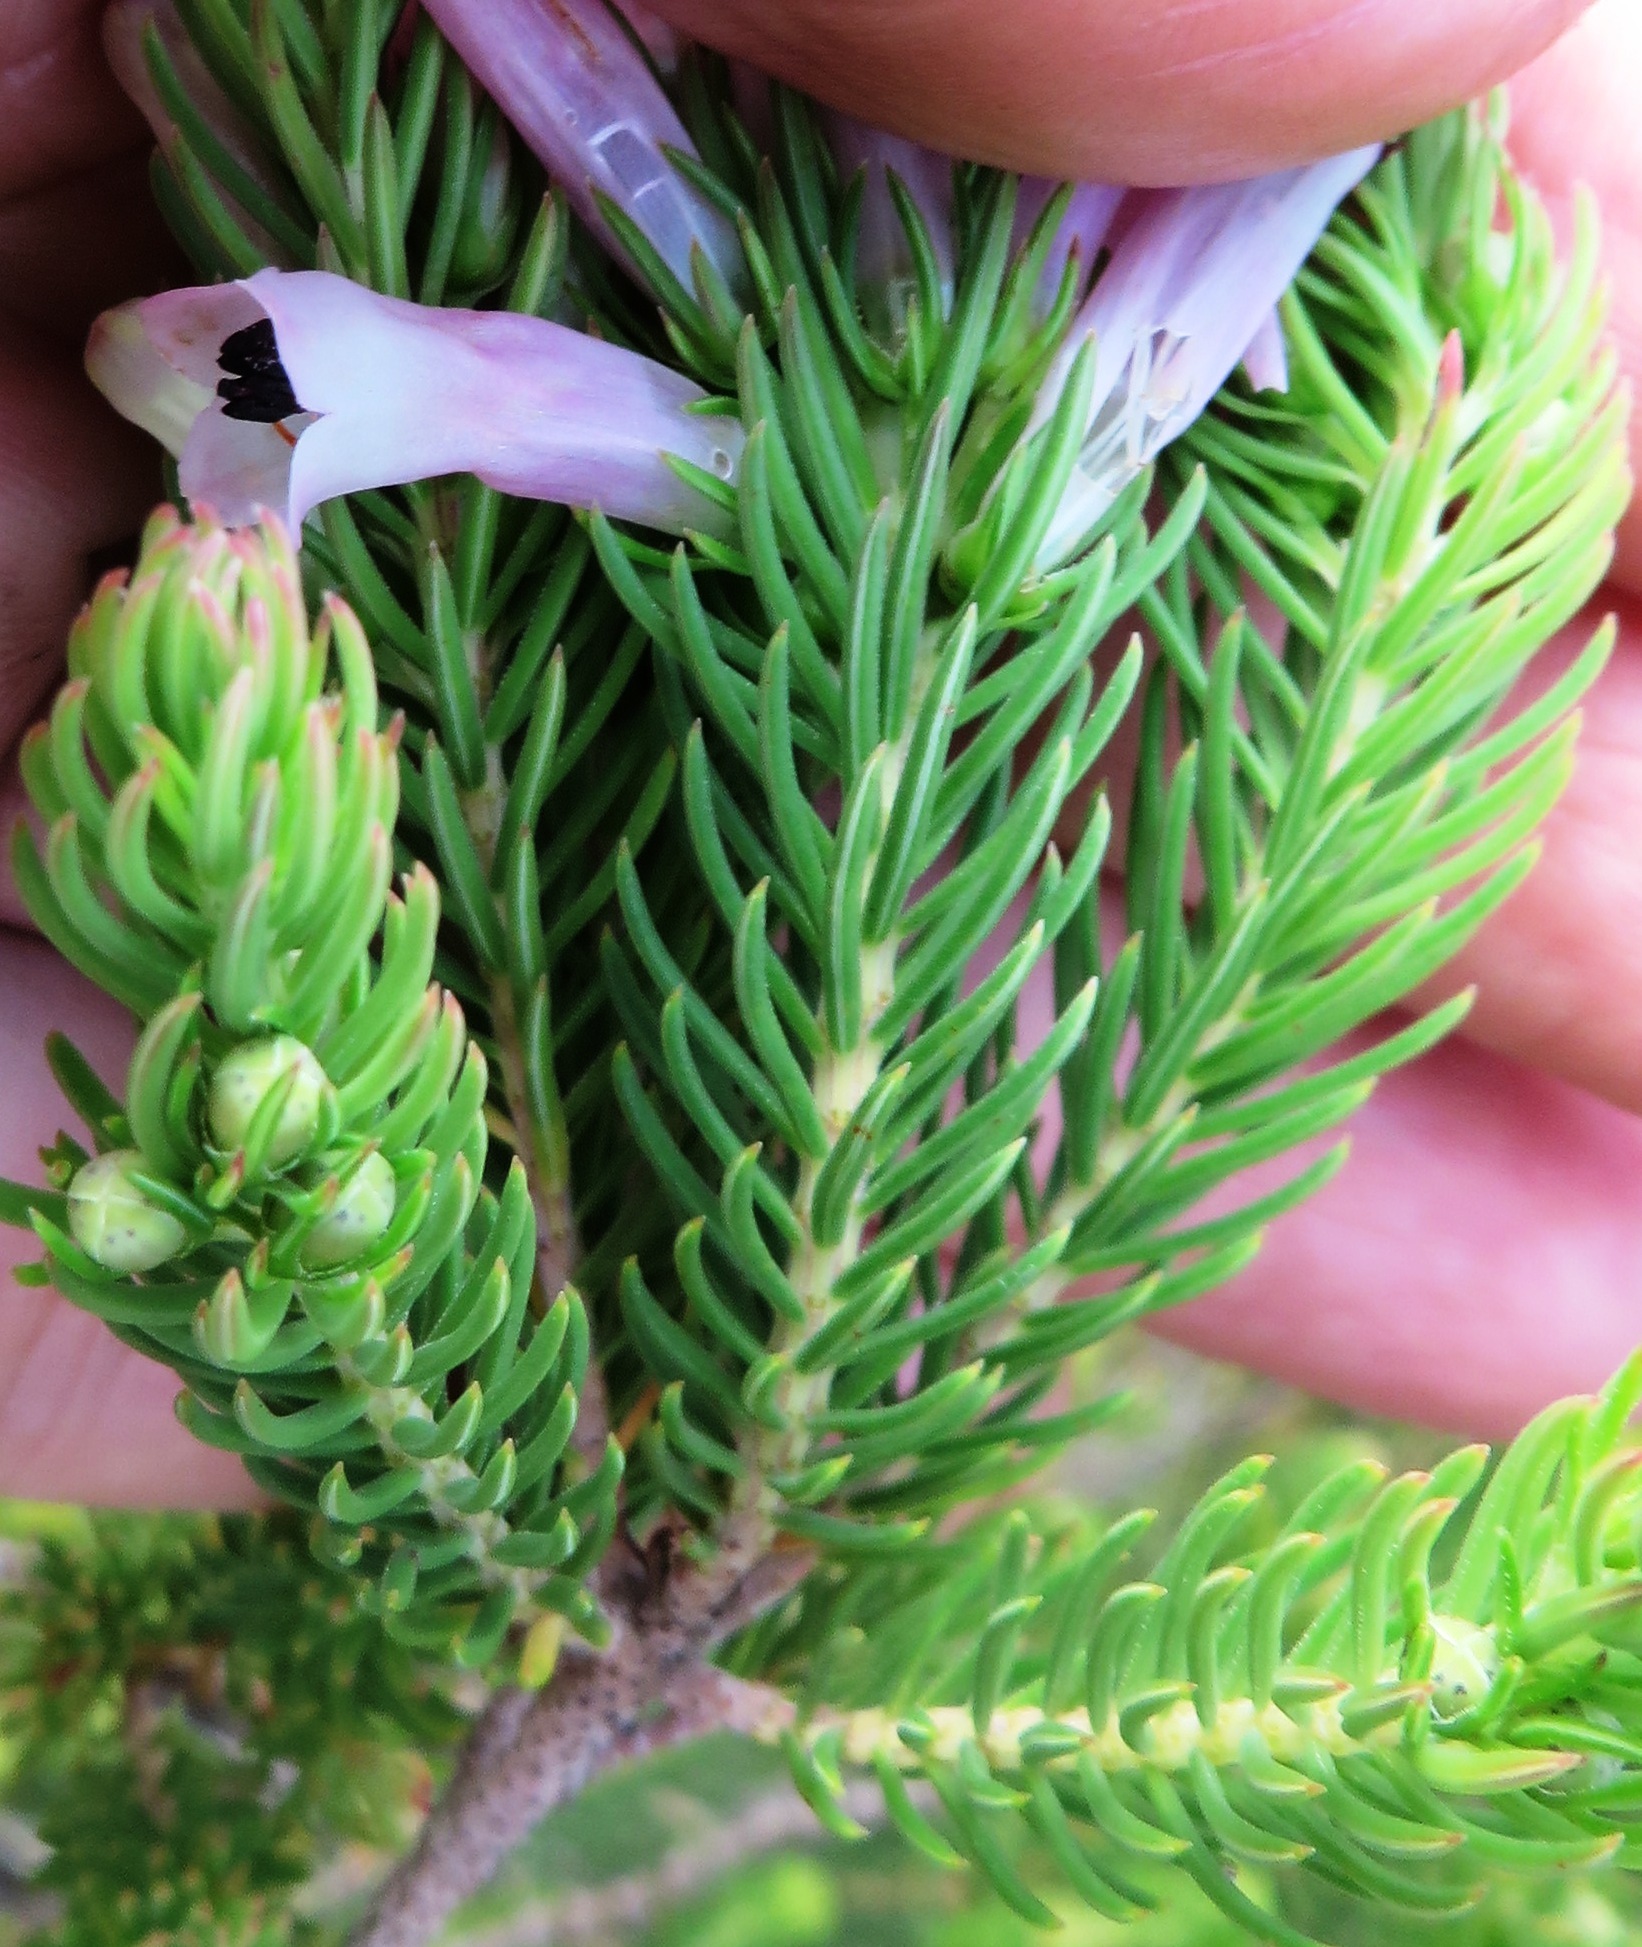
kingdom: Plantae
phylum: Tracheophyta
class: Magnoliopsida
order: Ericales
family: Ericaceae
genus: Erica
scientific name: Erica pinea
